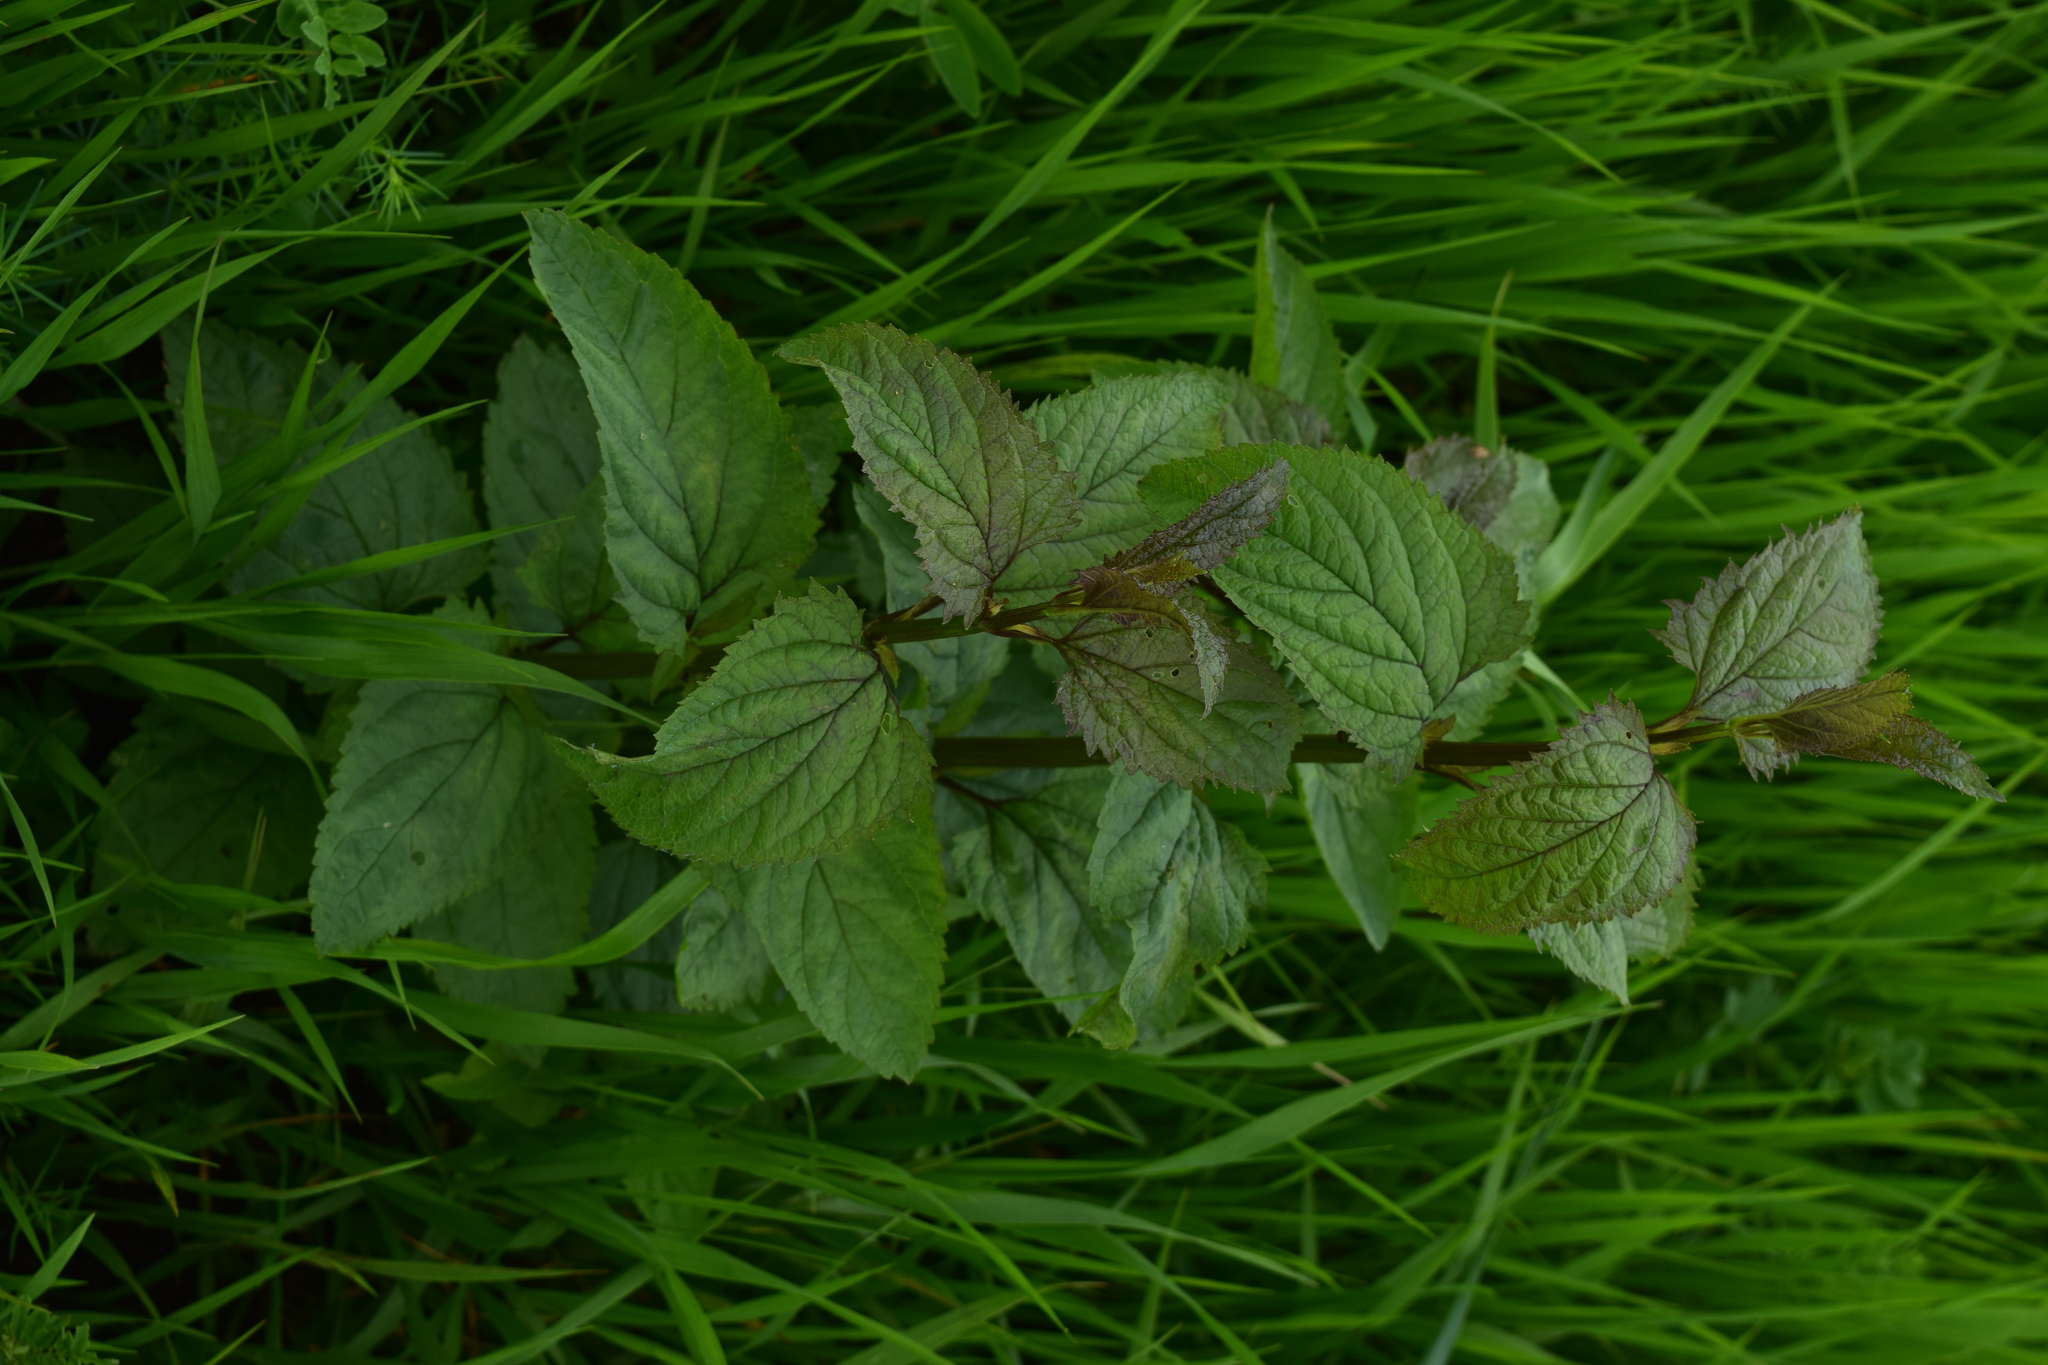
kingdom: Plantae
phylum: Tracheophyta
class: Magnoliopsida
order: Lamiales
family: Scrophulariaceae
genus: Scrophularia
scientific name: Scrophularia nodosa
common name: Common figwort
